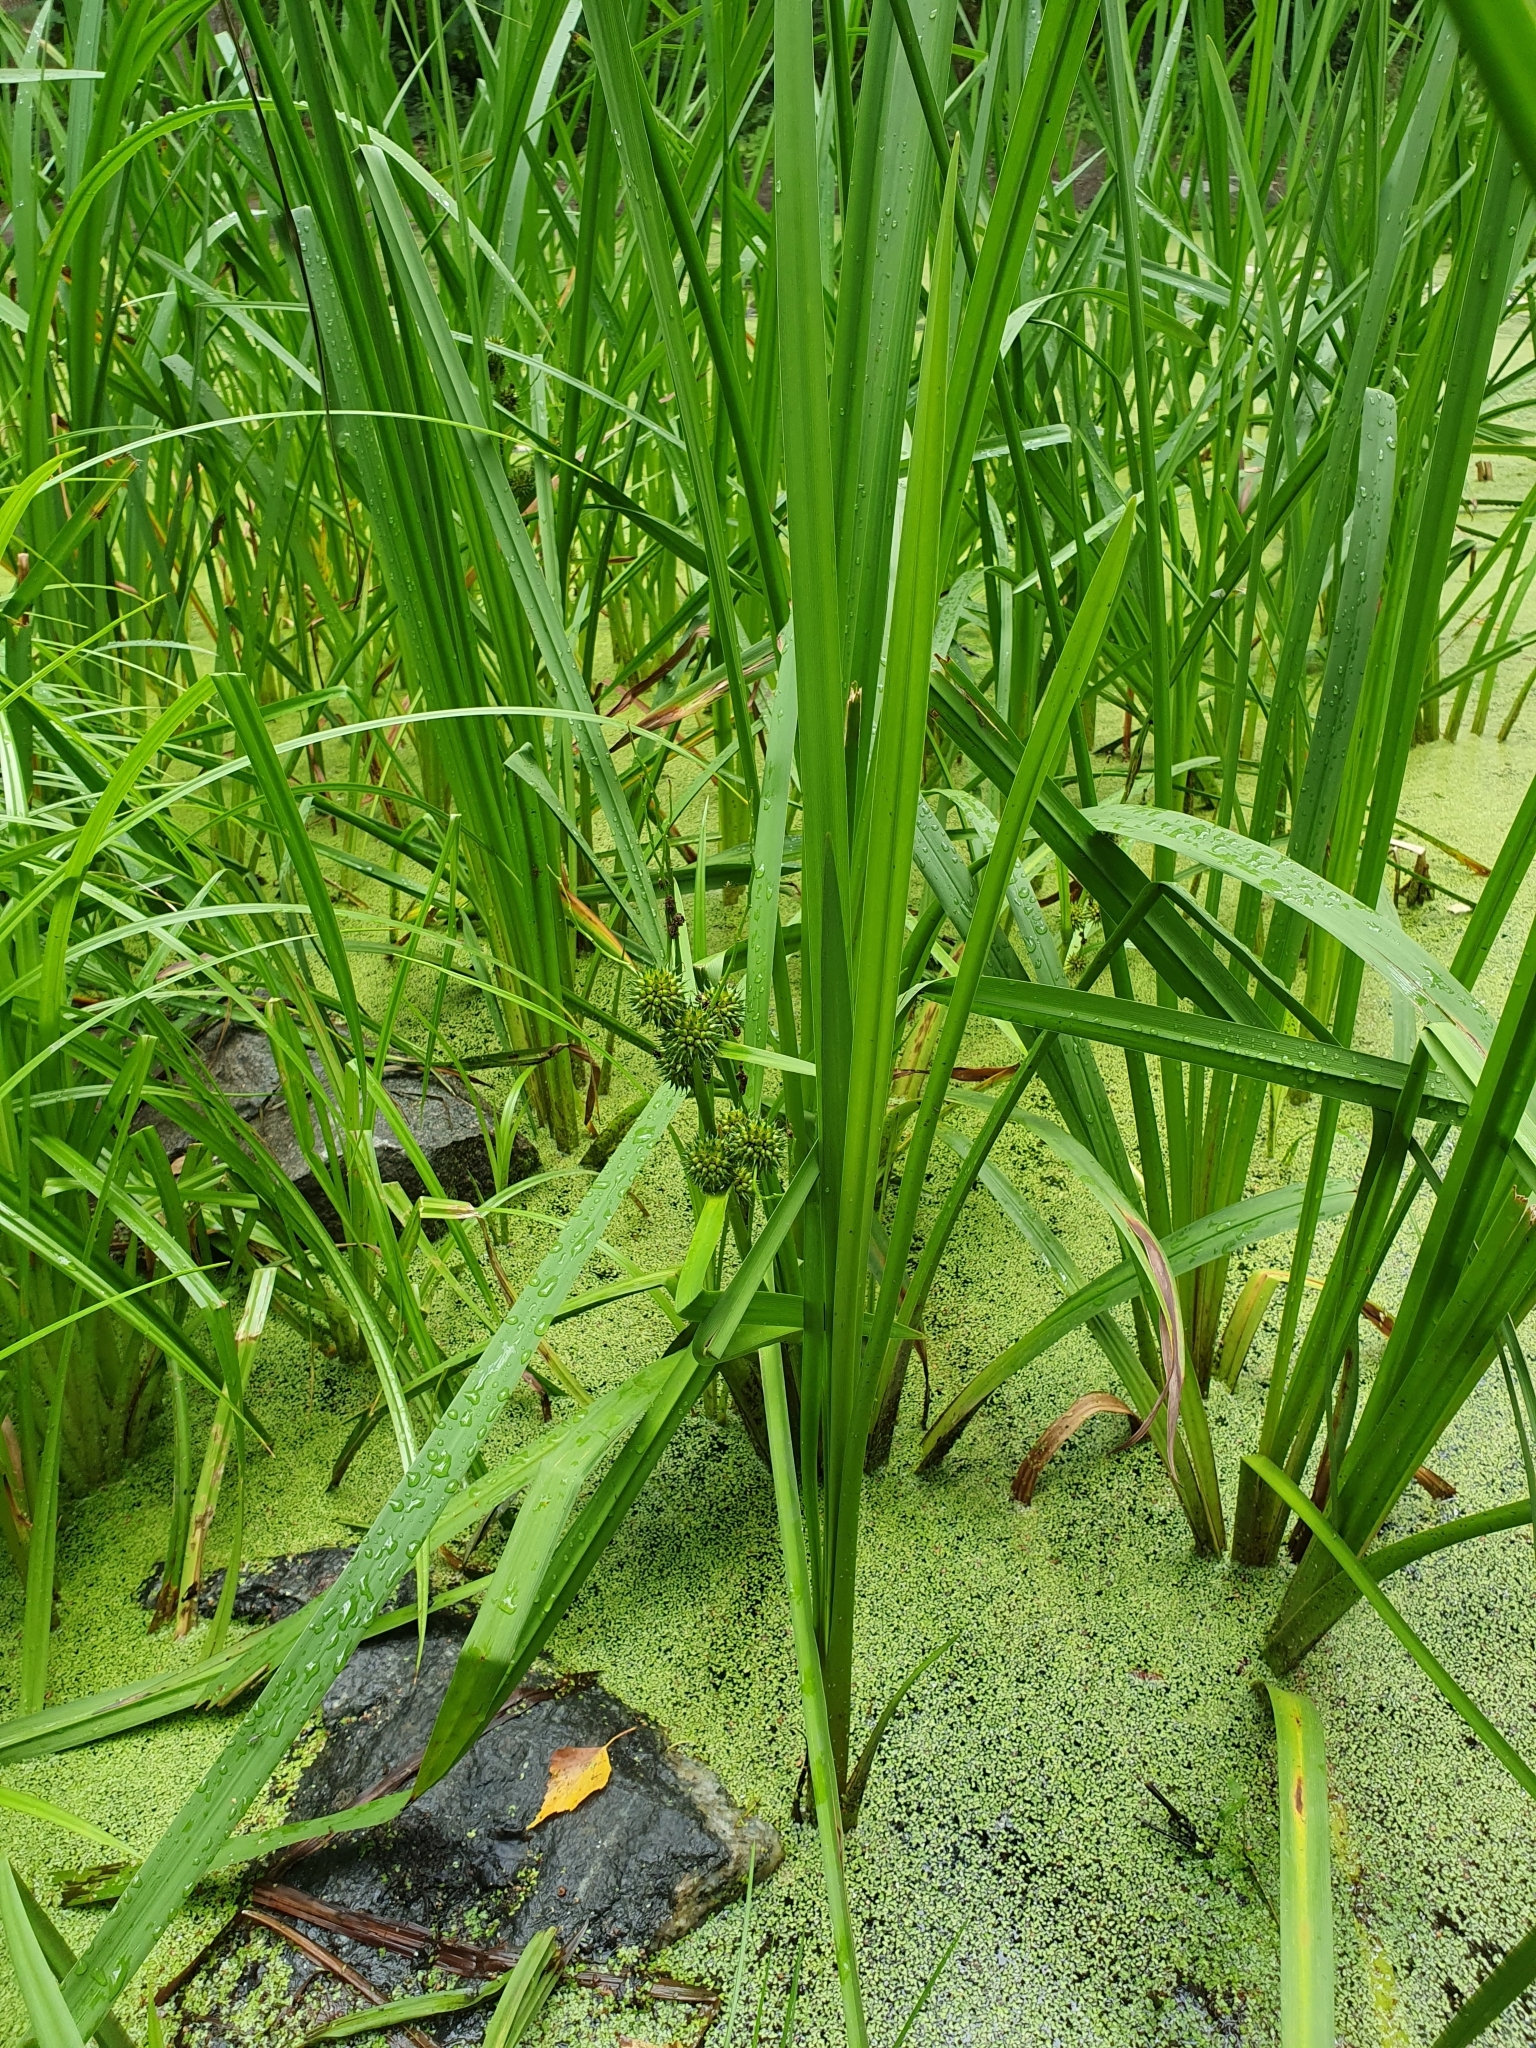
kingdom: Plantae
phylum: Tracheophyta
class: Liliopsida
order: Poales
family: Typhaceae
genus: Sparganium
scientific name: Sparganium erectum
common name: Branched bur-reed
